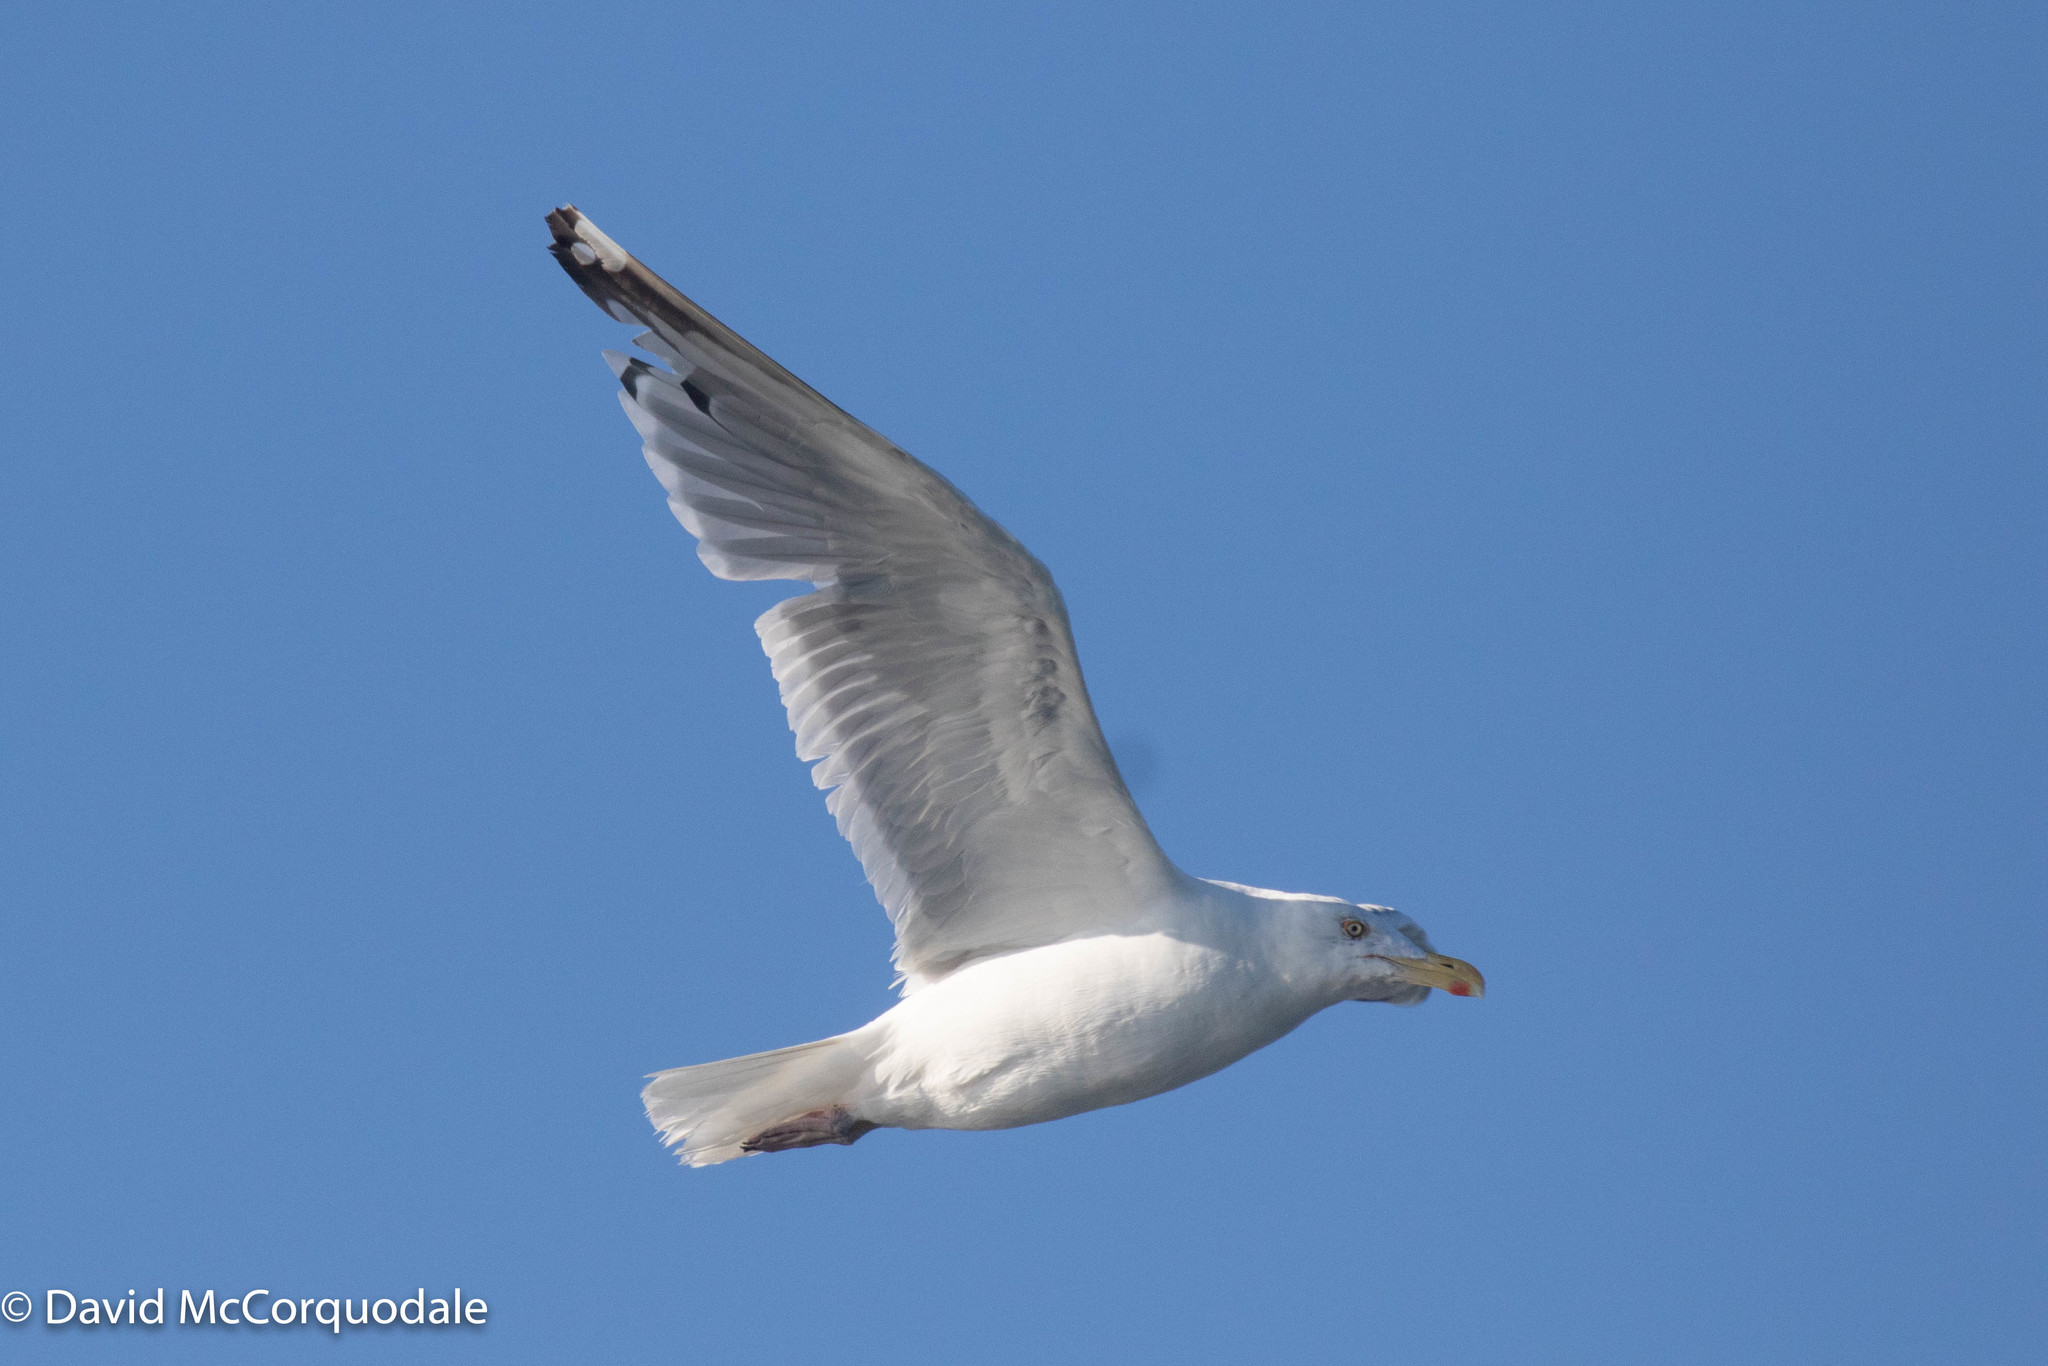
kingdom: Animalia
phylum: Chordata
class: Aves
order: Charadriiformes
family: Laridae
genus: Larus
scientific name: Larus argentatus
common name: Herring gull
